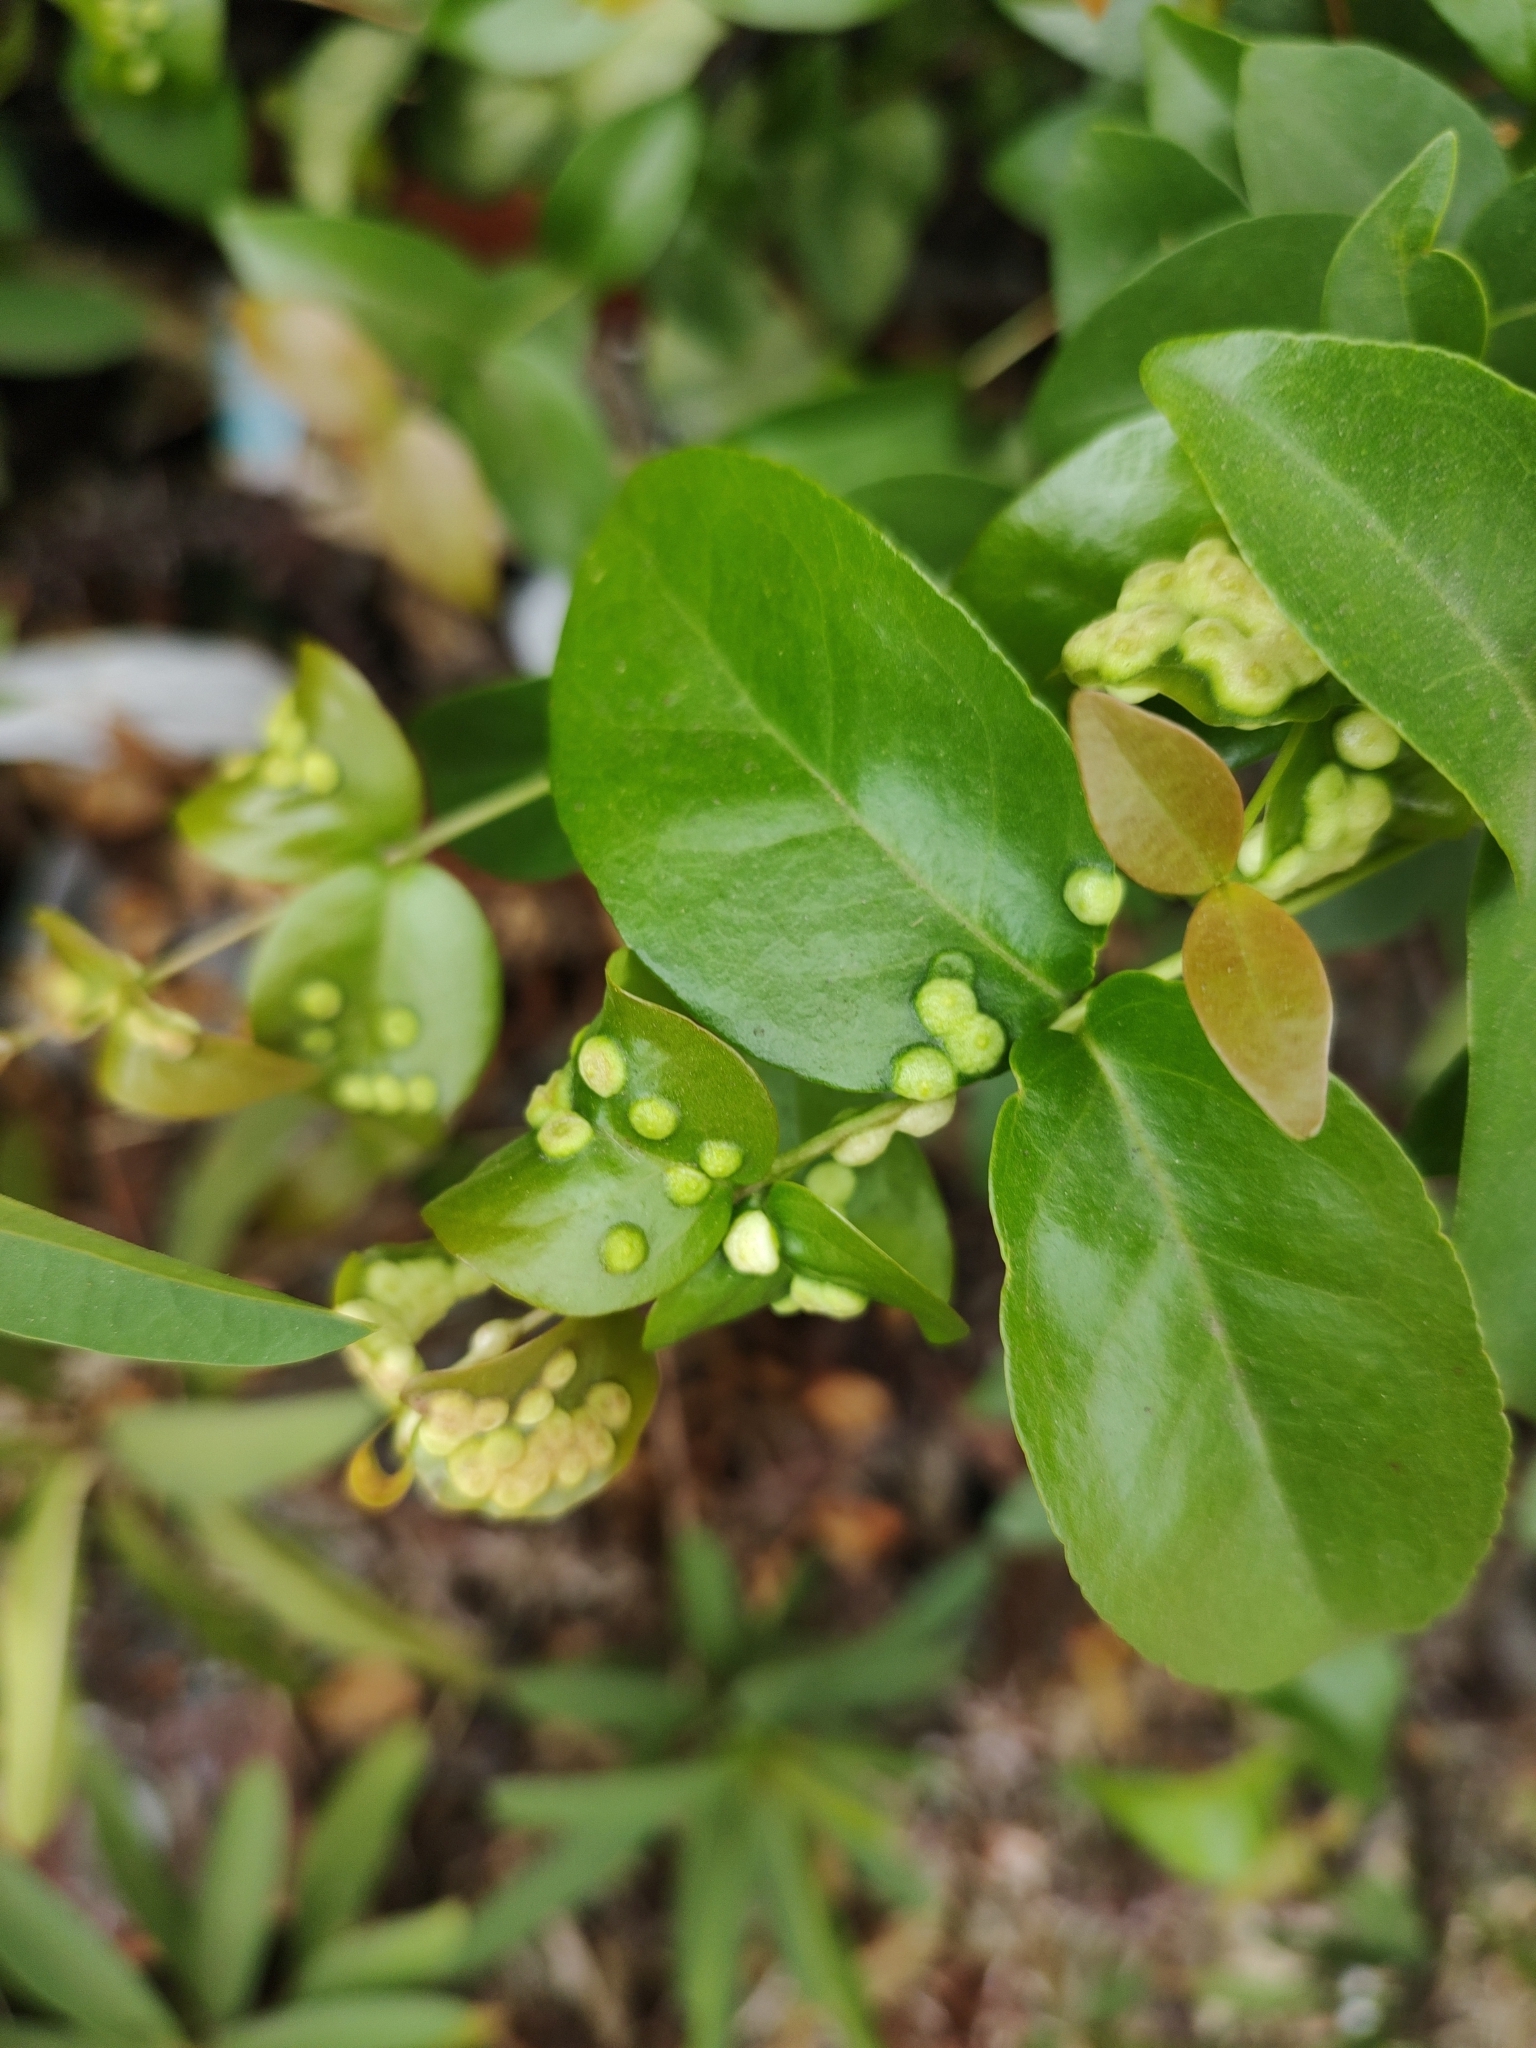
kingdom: Animalia
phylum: Arthropoda
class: Insecta
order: Diptera
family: Cecidomyiidae
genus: Maiamyia
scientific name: Maiamyia dispar
